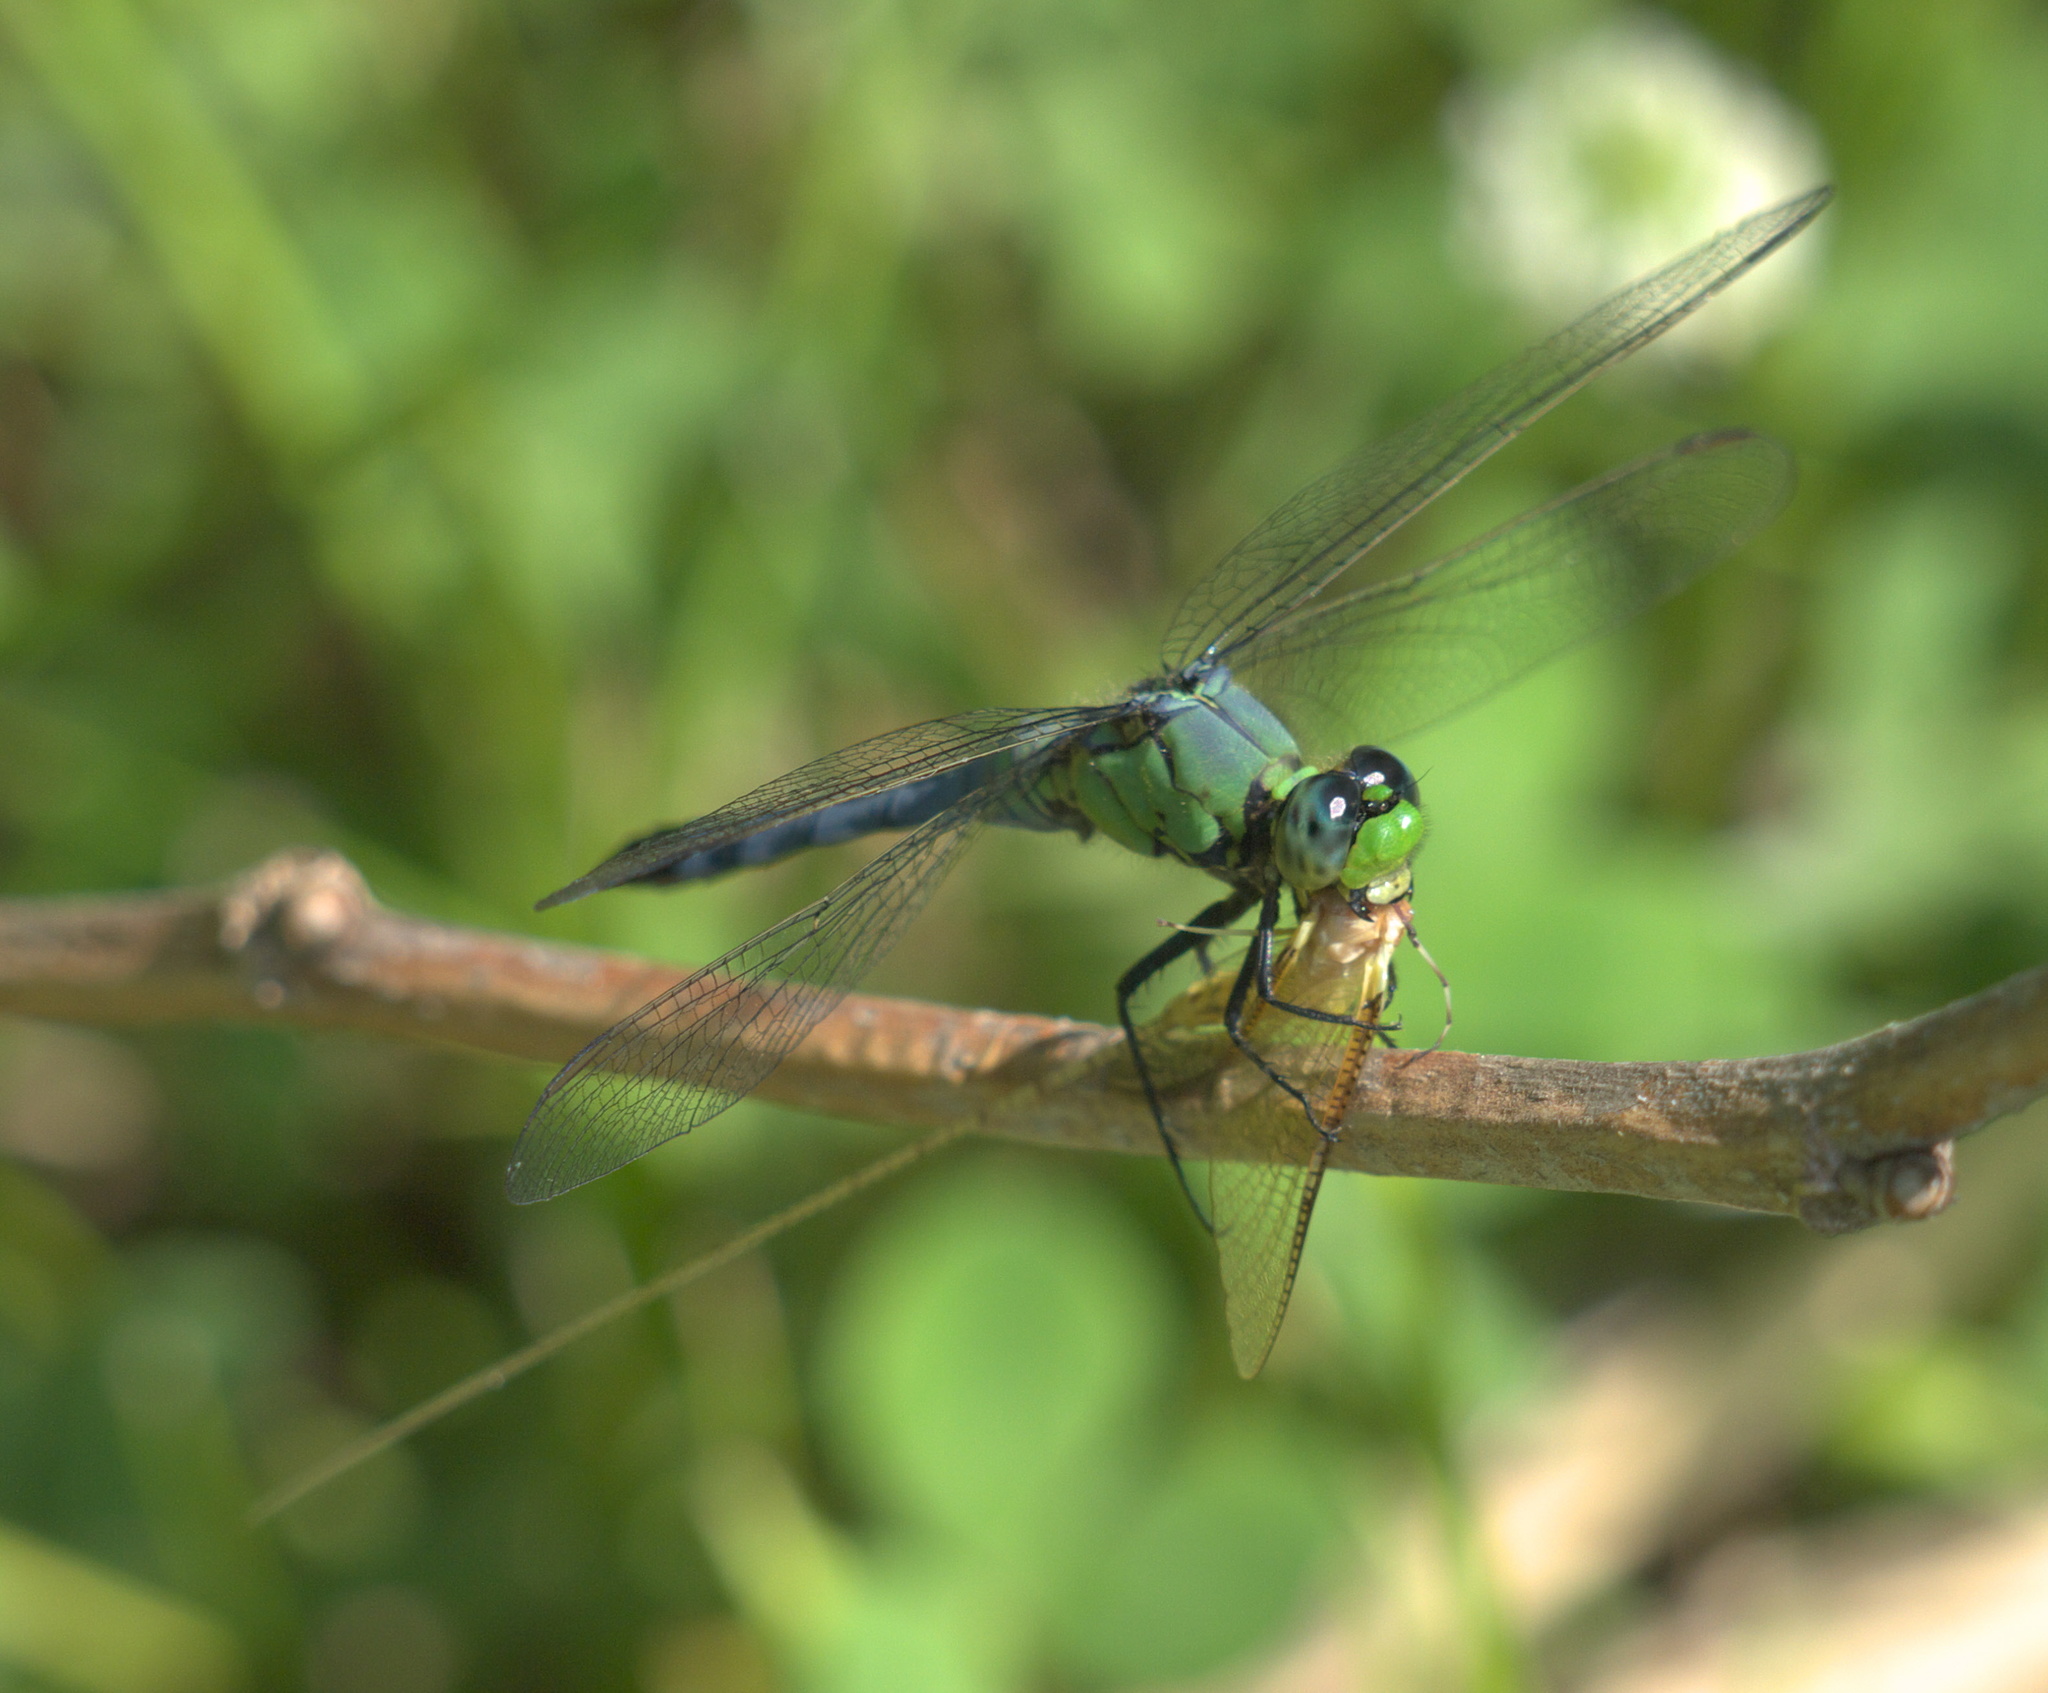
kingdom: Animalia
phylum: Arthropoda
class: Insecta
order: Odonata
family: Libellulidae
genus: Erythemis
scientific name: Erythemis simplicicollis
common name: Eastern pondhawk
